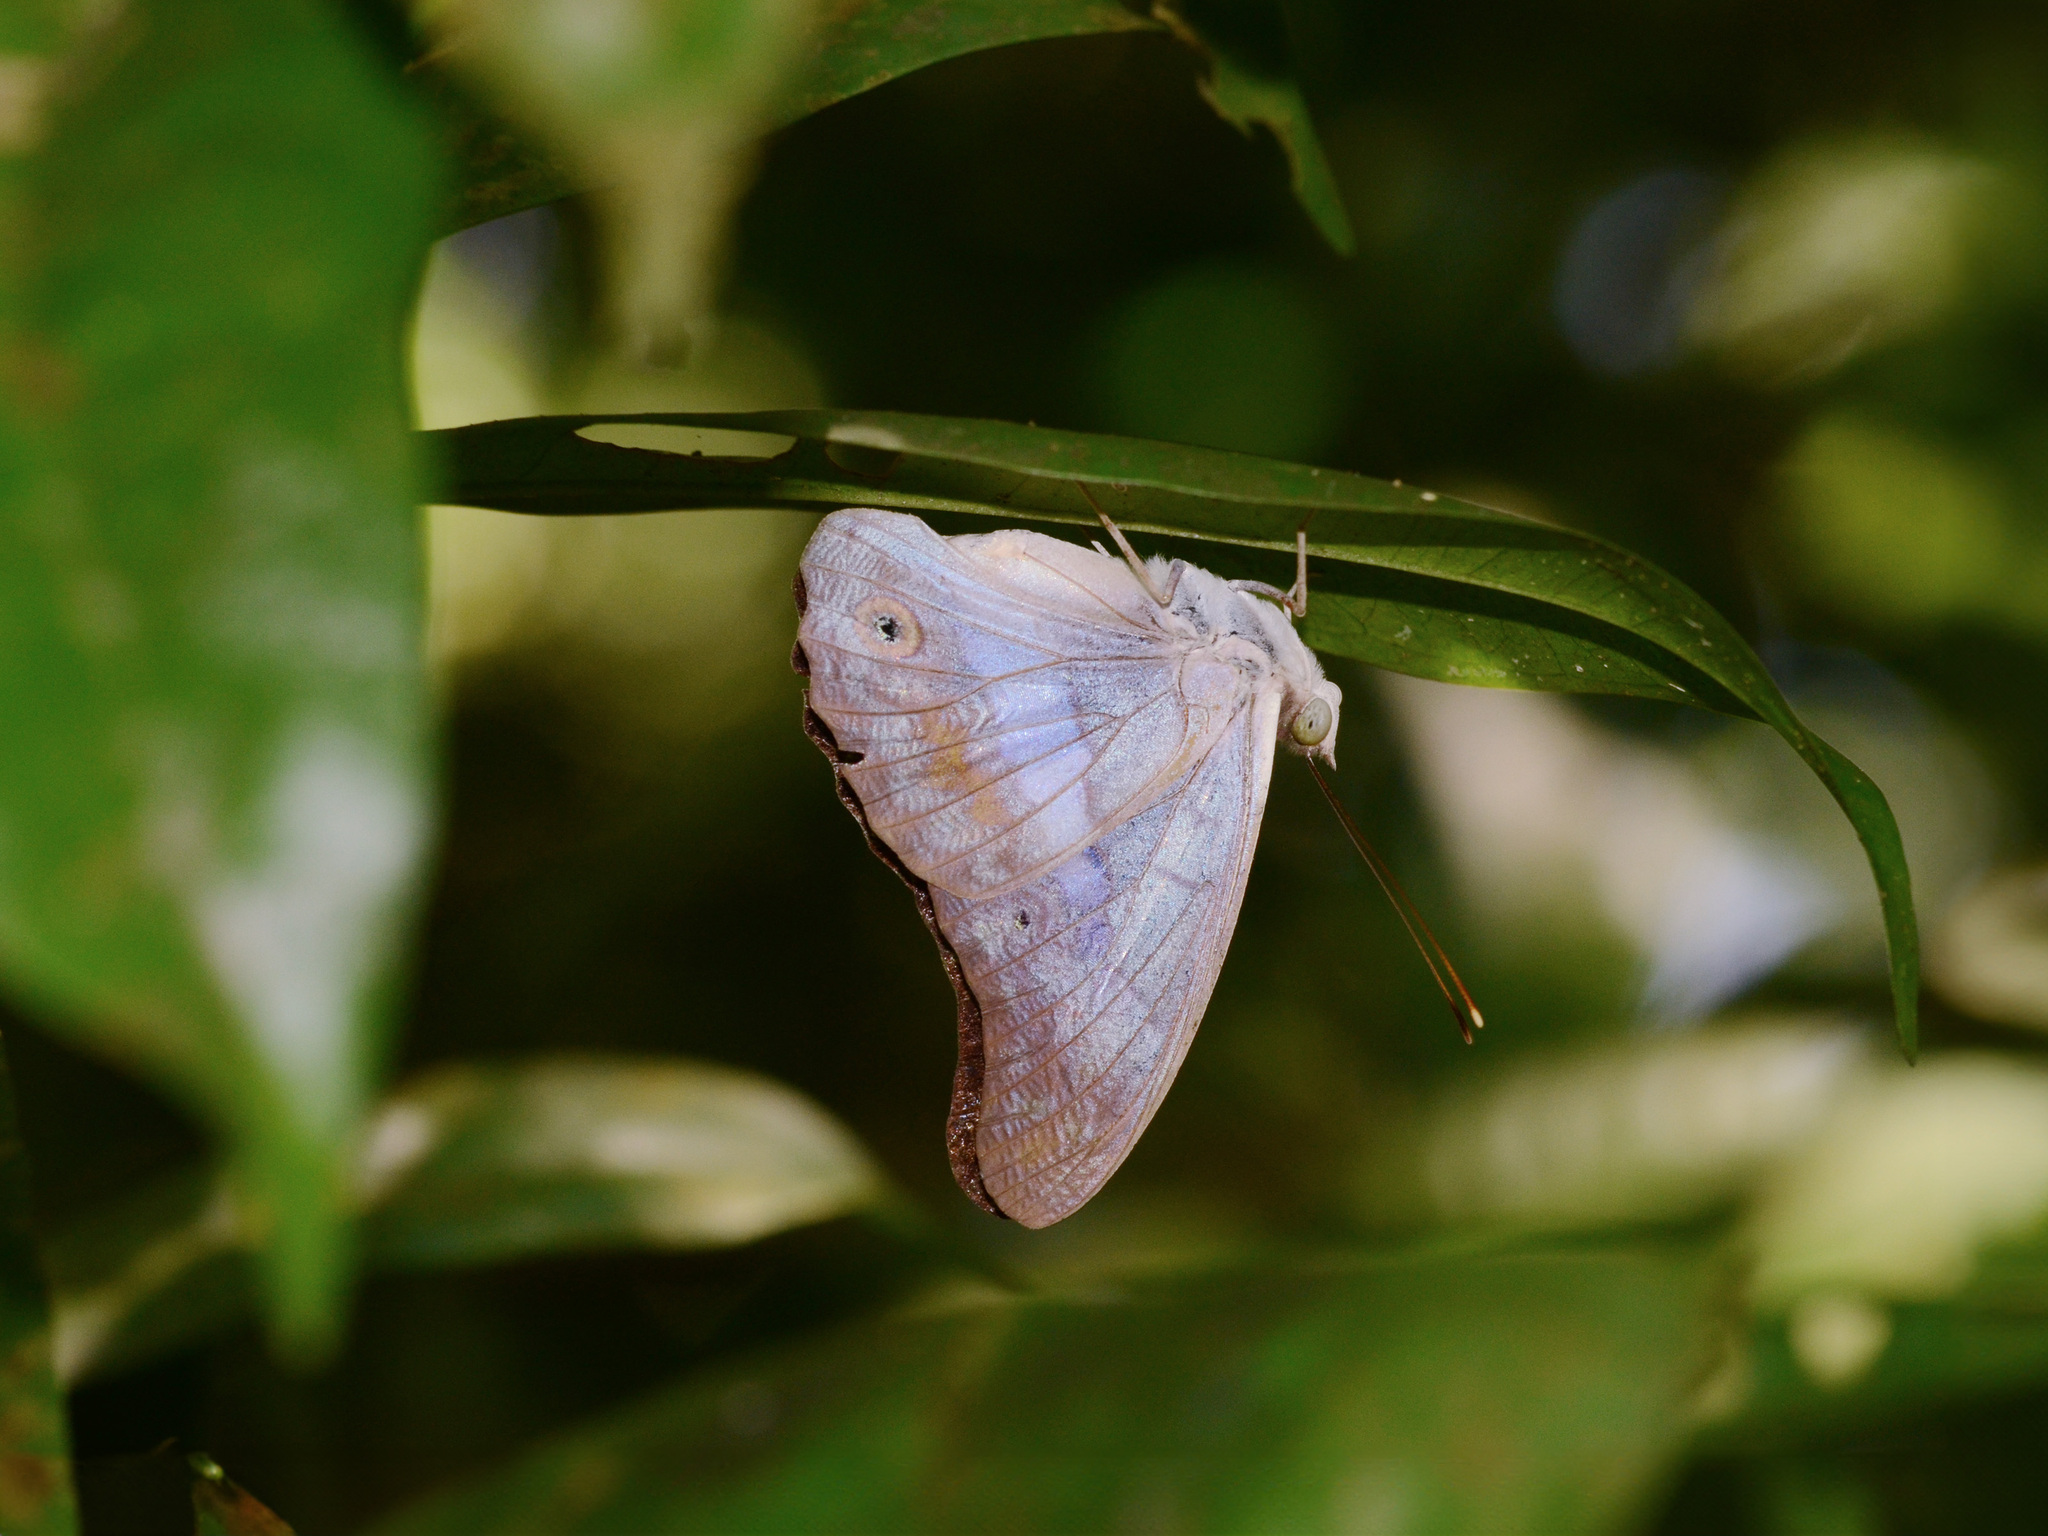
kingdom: Animalia
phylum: Arthropoda
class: Insecta
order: Lepidoptera
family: Nymphalidae
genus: Eulaceura
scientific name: Eulaceura osteria
